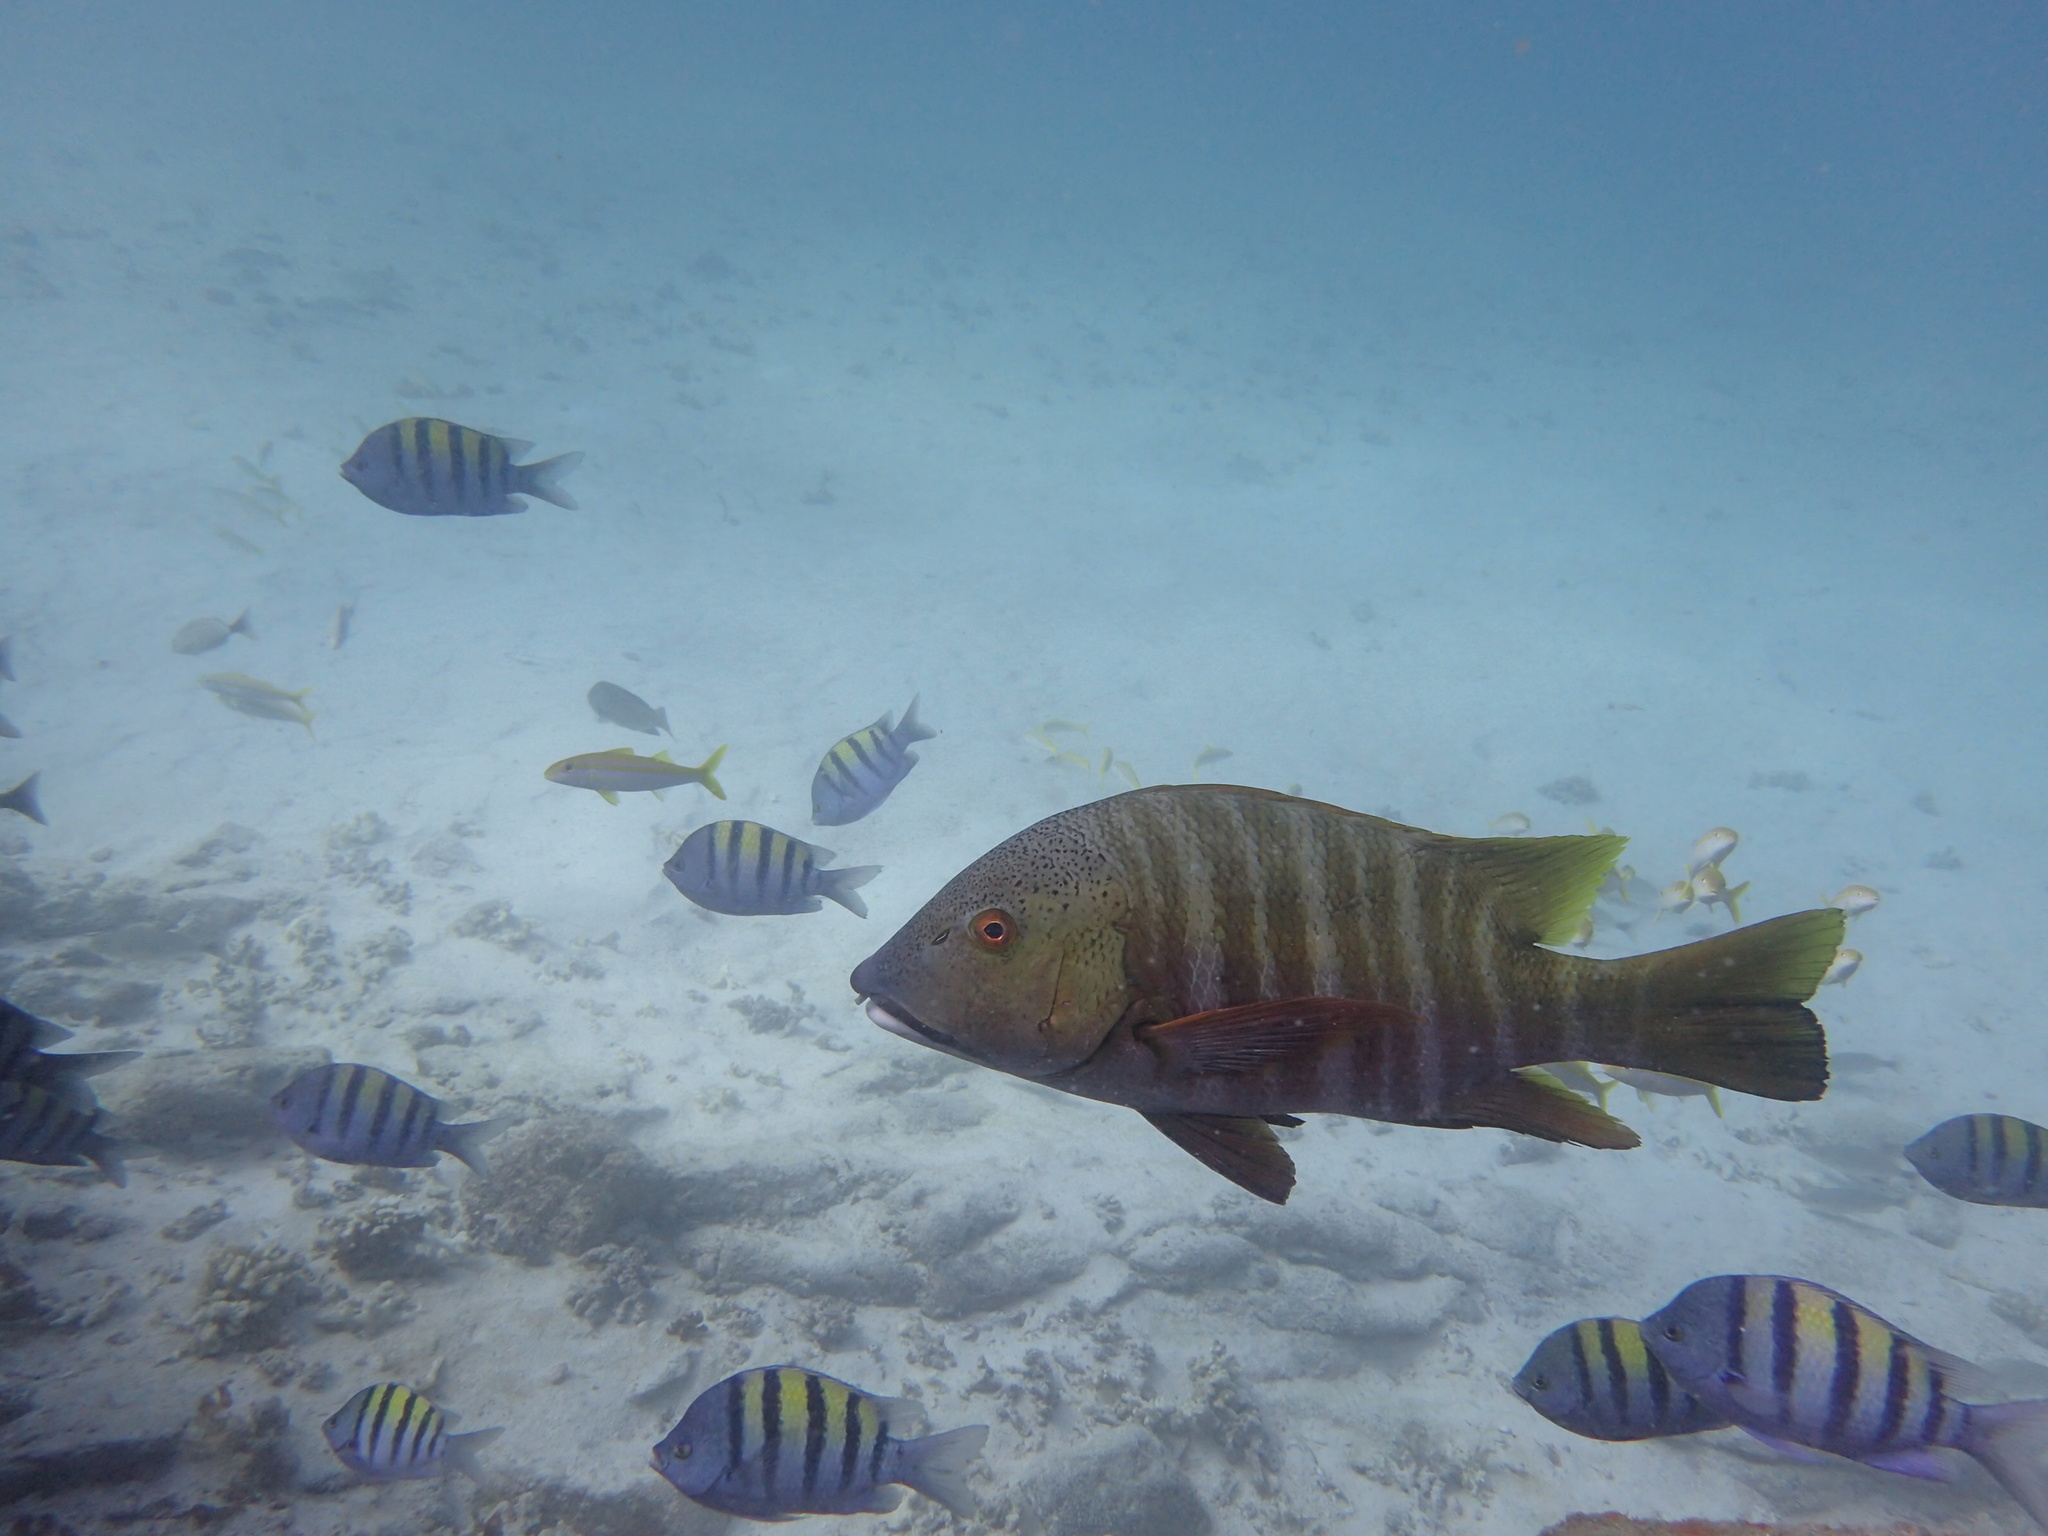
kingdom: Animalia
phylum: Chordata
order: Perciformes
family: Lutjanidae
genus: Hoplopagrus
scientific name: Hoplopagrus guentherii
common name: Barred pargo
